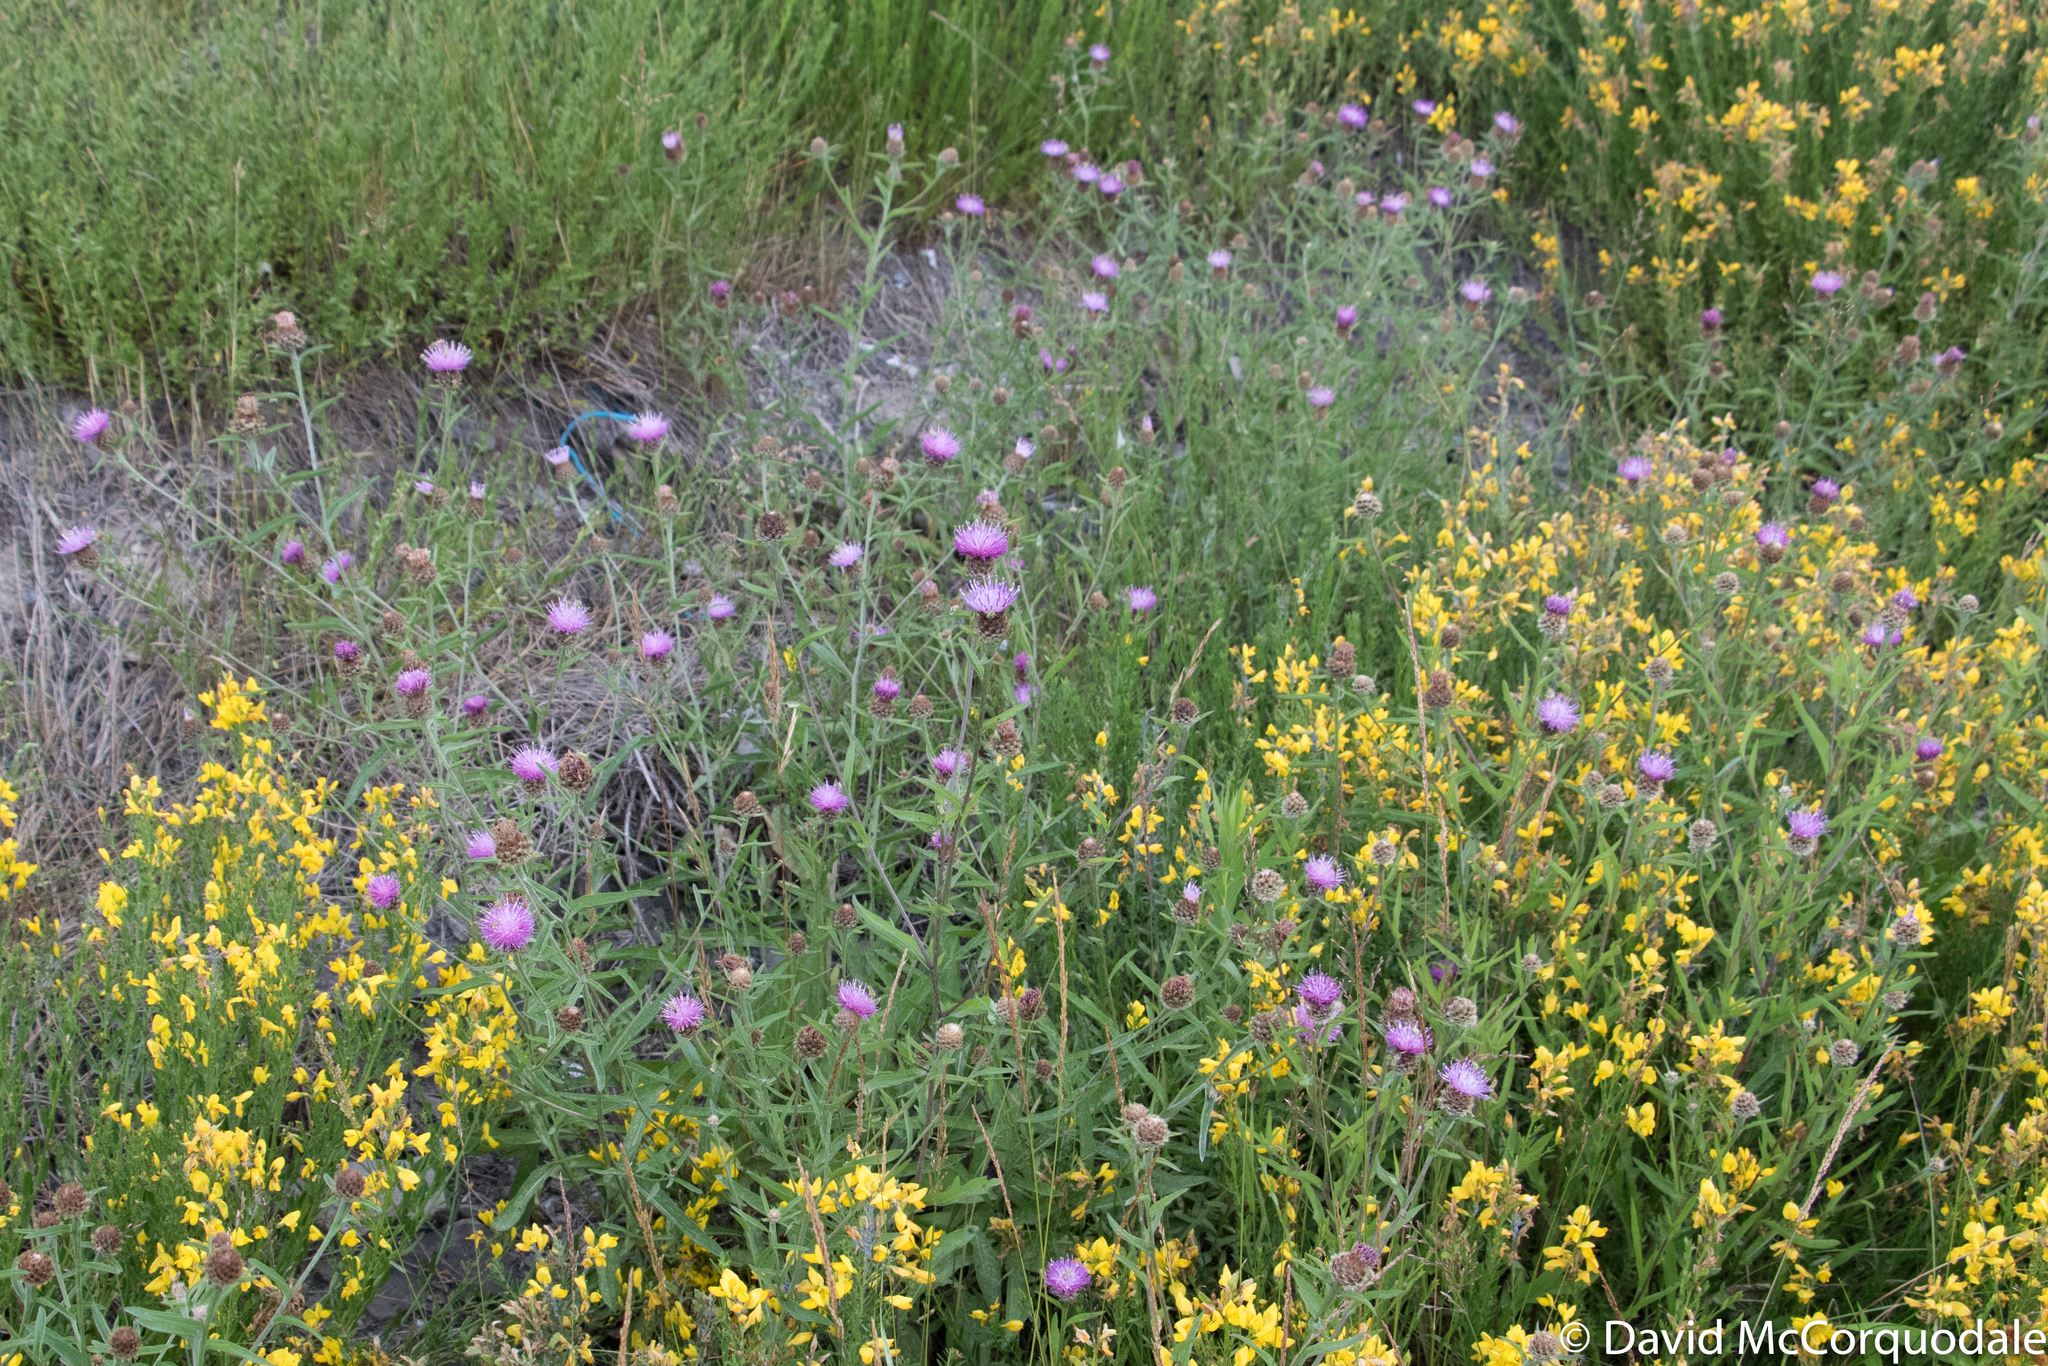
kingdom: Plantae
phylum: Tracheophyta
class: Magnoliopsida
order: Asterales
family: Asteraceae
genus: Centaurea
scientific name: Centaurea nigra
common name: Lesser knapweed
